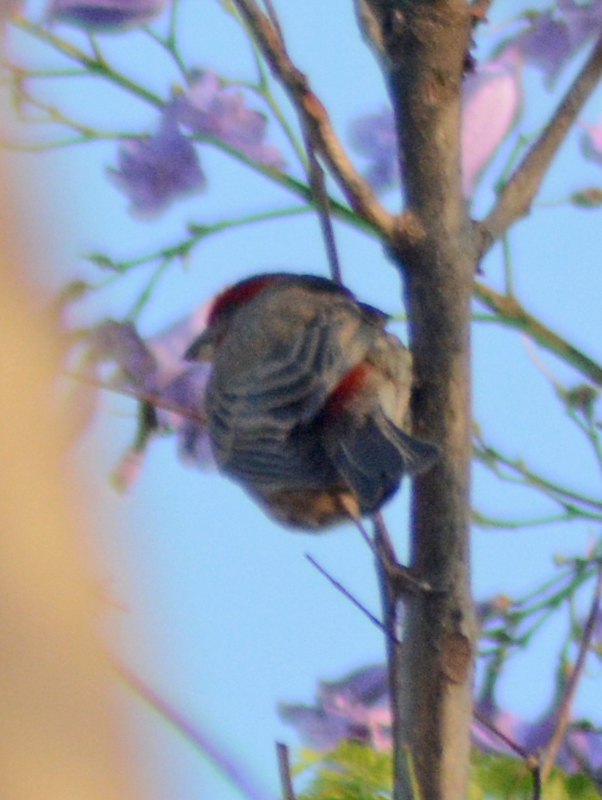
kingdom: Animalia
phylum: Chordata
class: Aves
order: Passeriformes
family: Fringillidae
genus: Haemorhous
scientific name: Haemorhous mexicanus
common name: House finch
